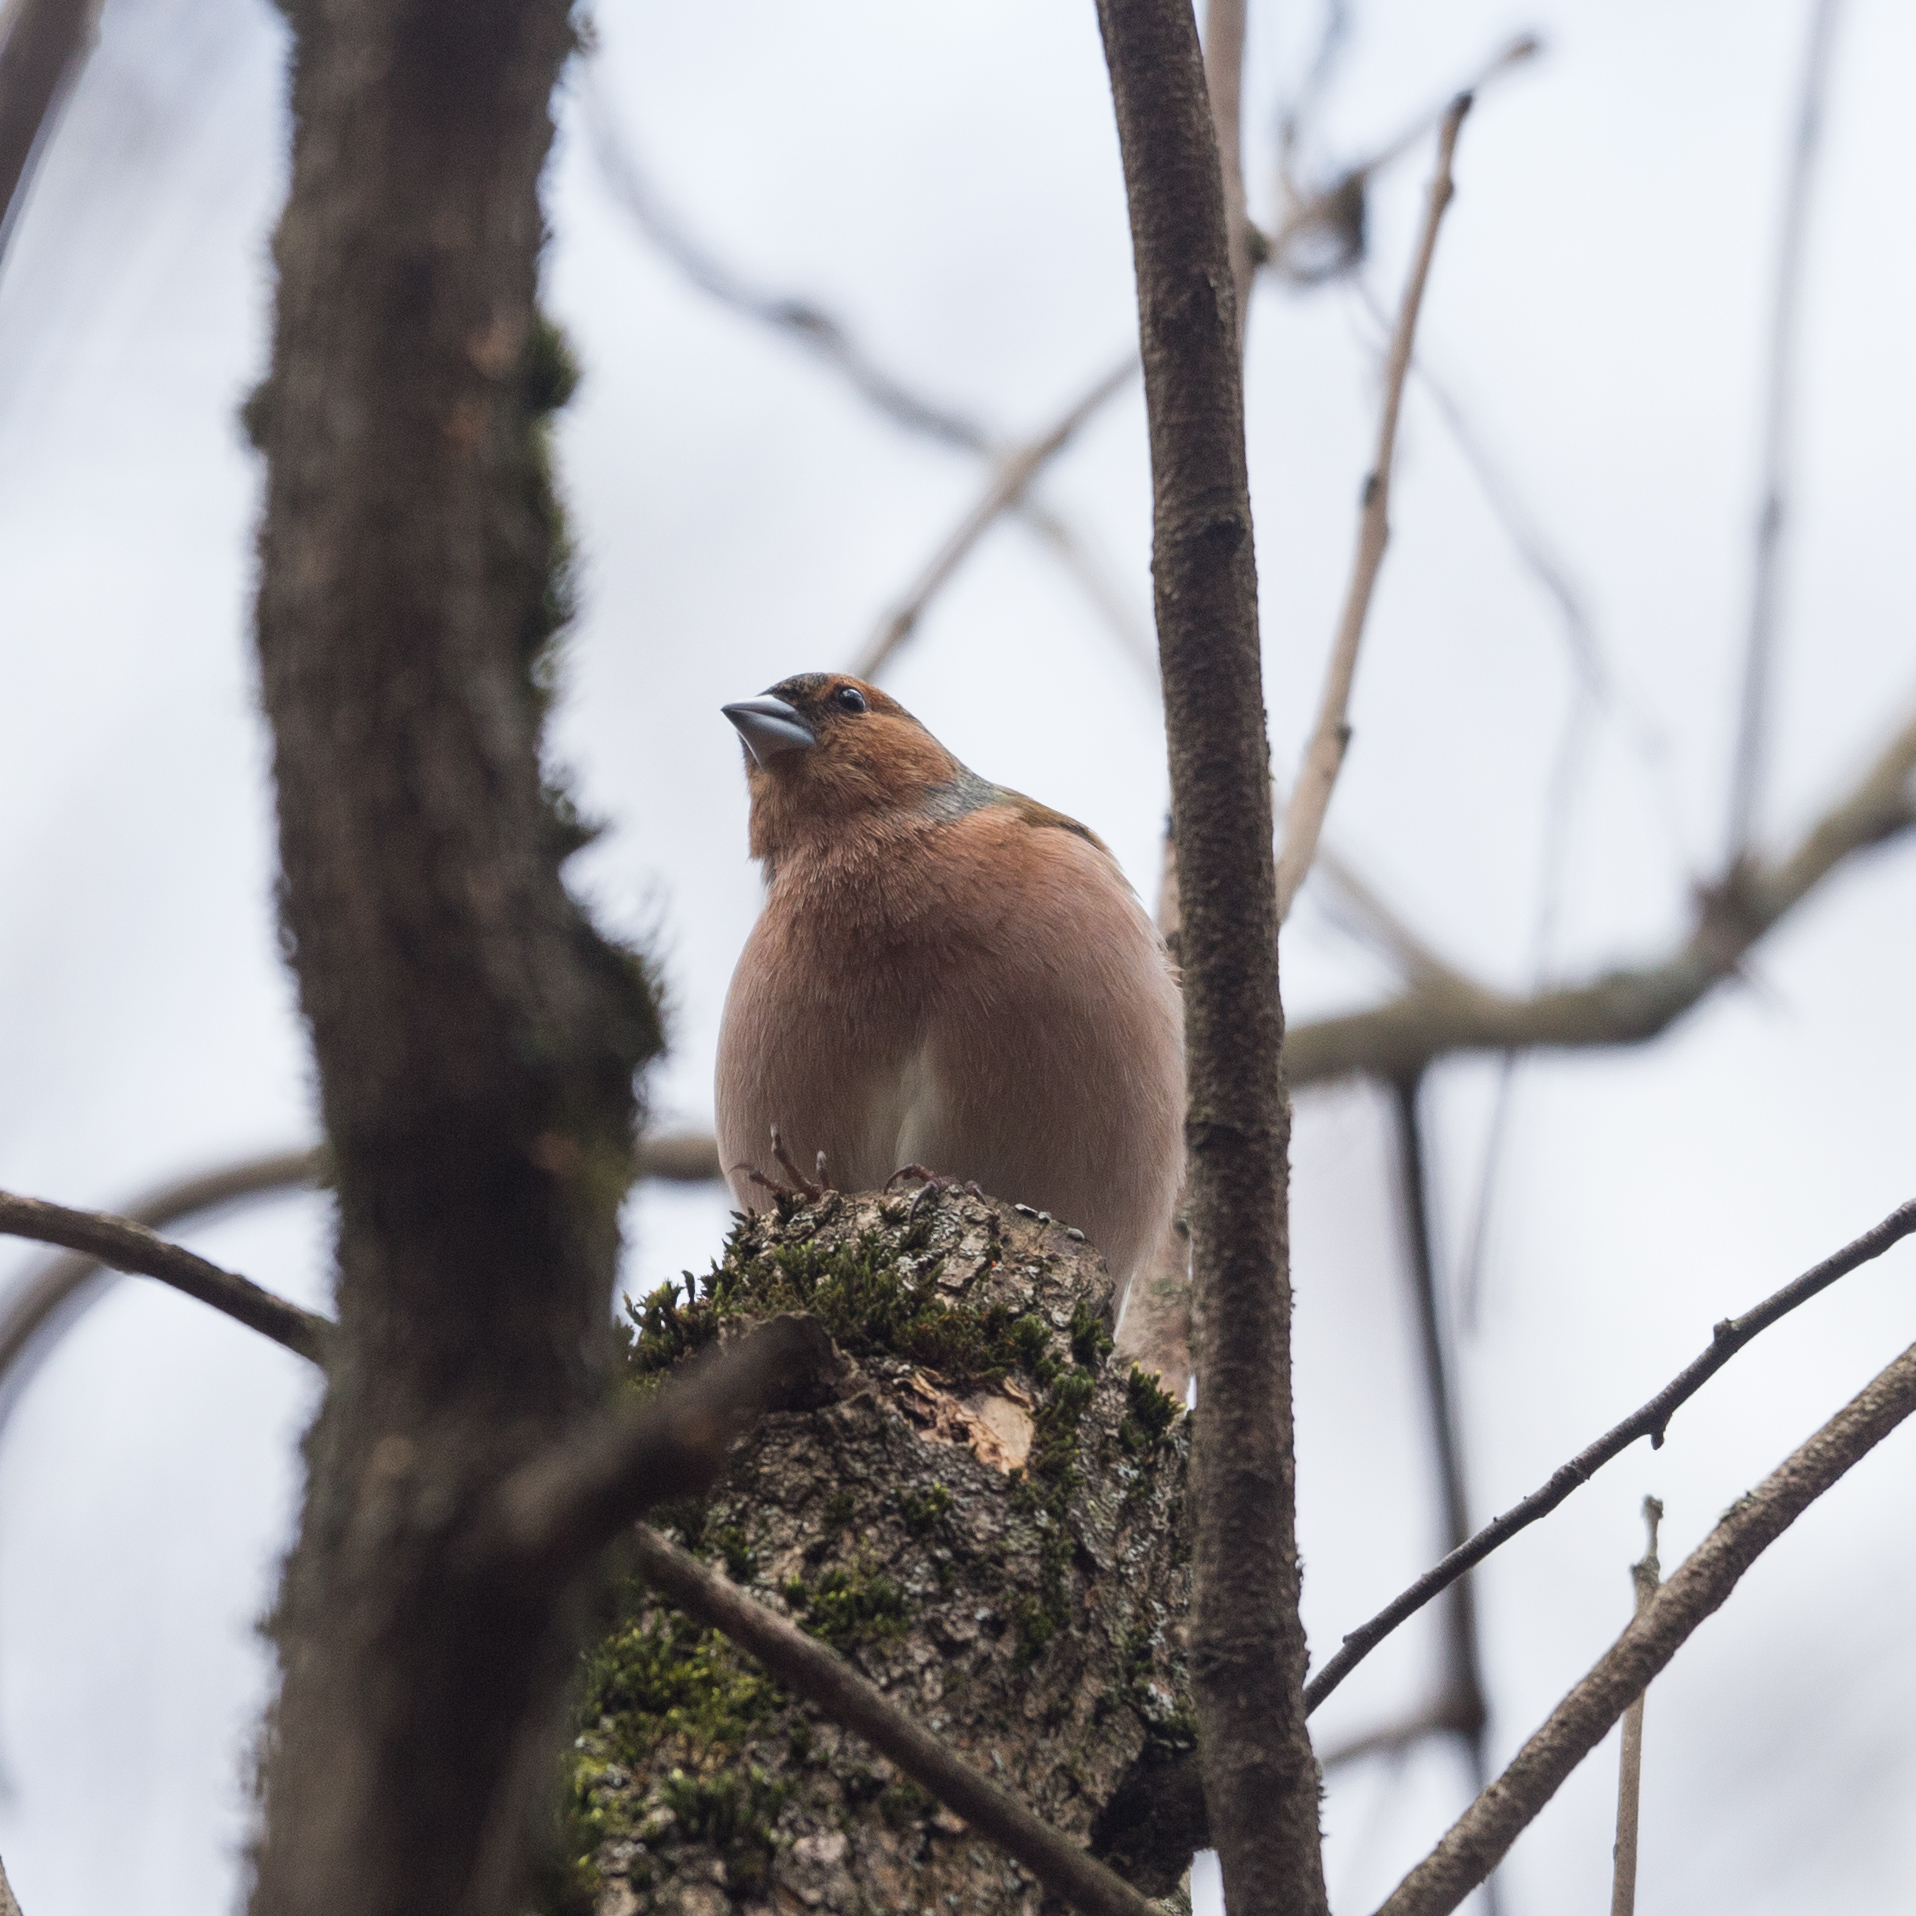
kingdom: Animalia
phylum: Chordata
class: Aves
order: Passeriformes
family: Fringillidae
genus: Fringilla
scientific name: Fringilla coelebs
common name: Common chaffinch
